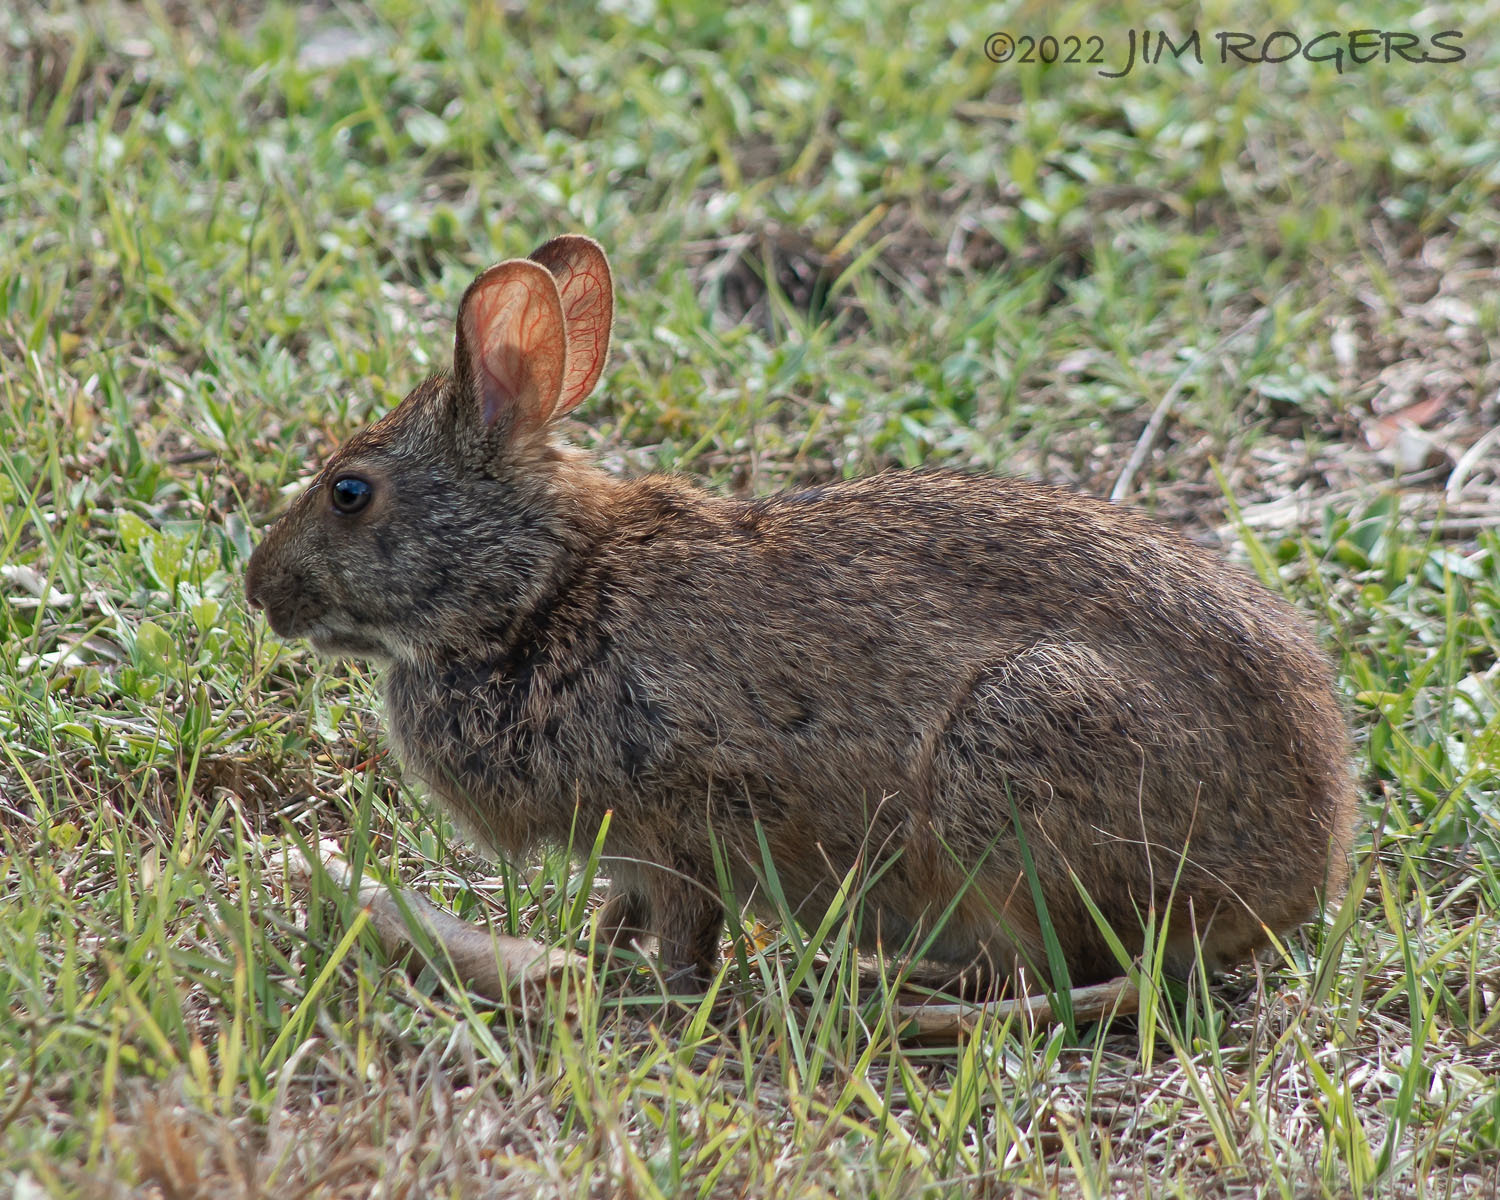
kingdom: Animalia
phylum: Chordata
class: Mammalia
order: Lagomorpha
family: Leporidae
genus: Sylvilagus
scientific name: Sylvilagus palustris
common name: Marsh rabbit
